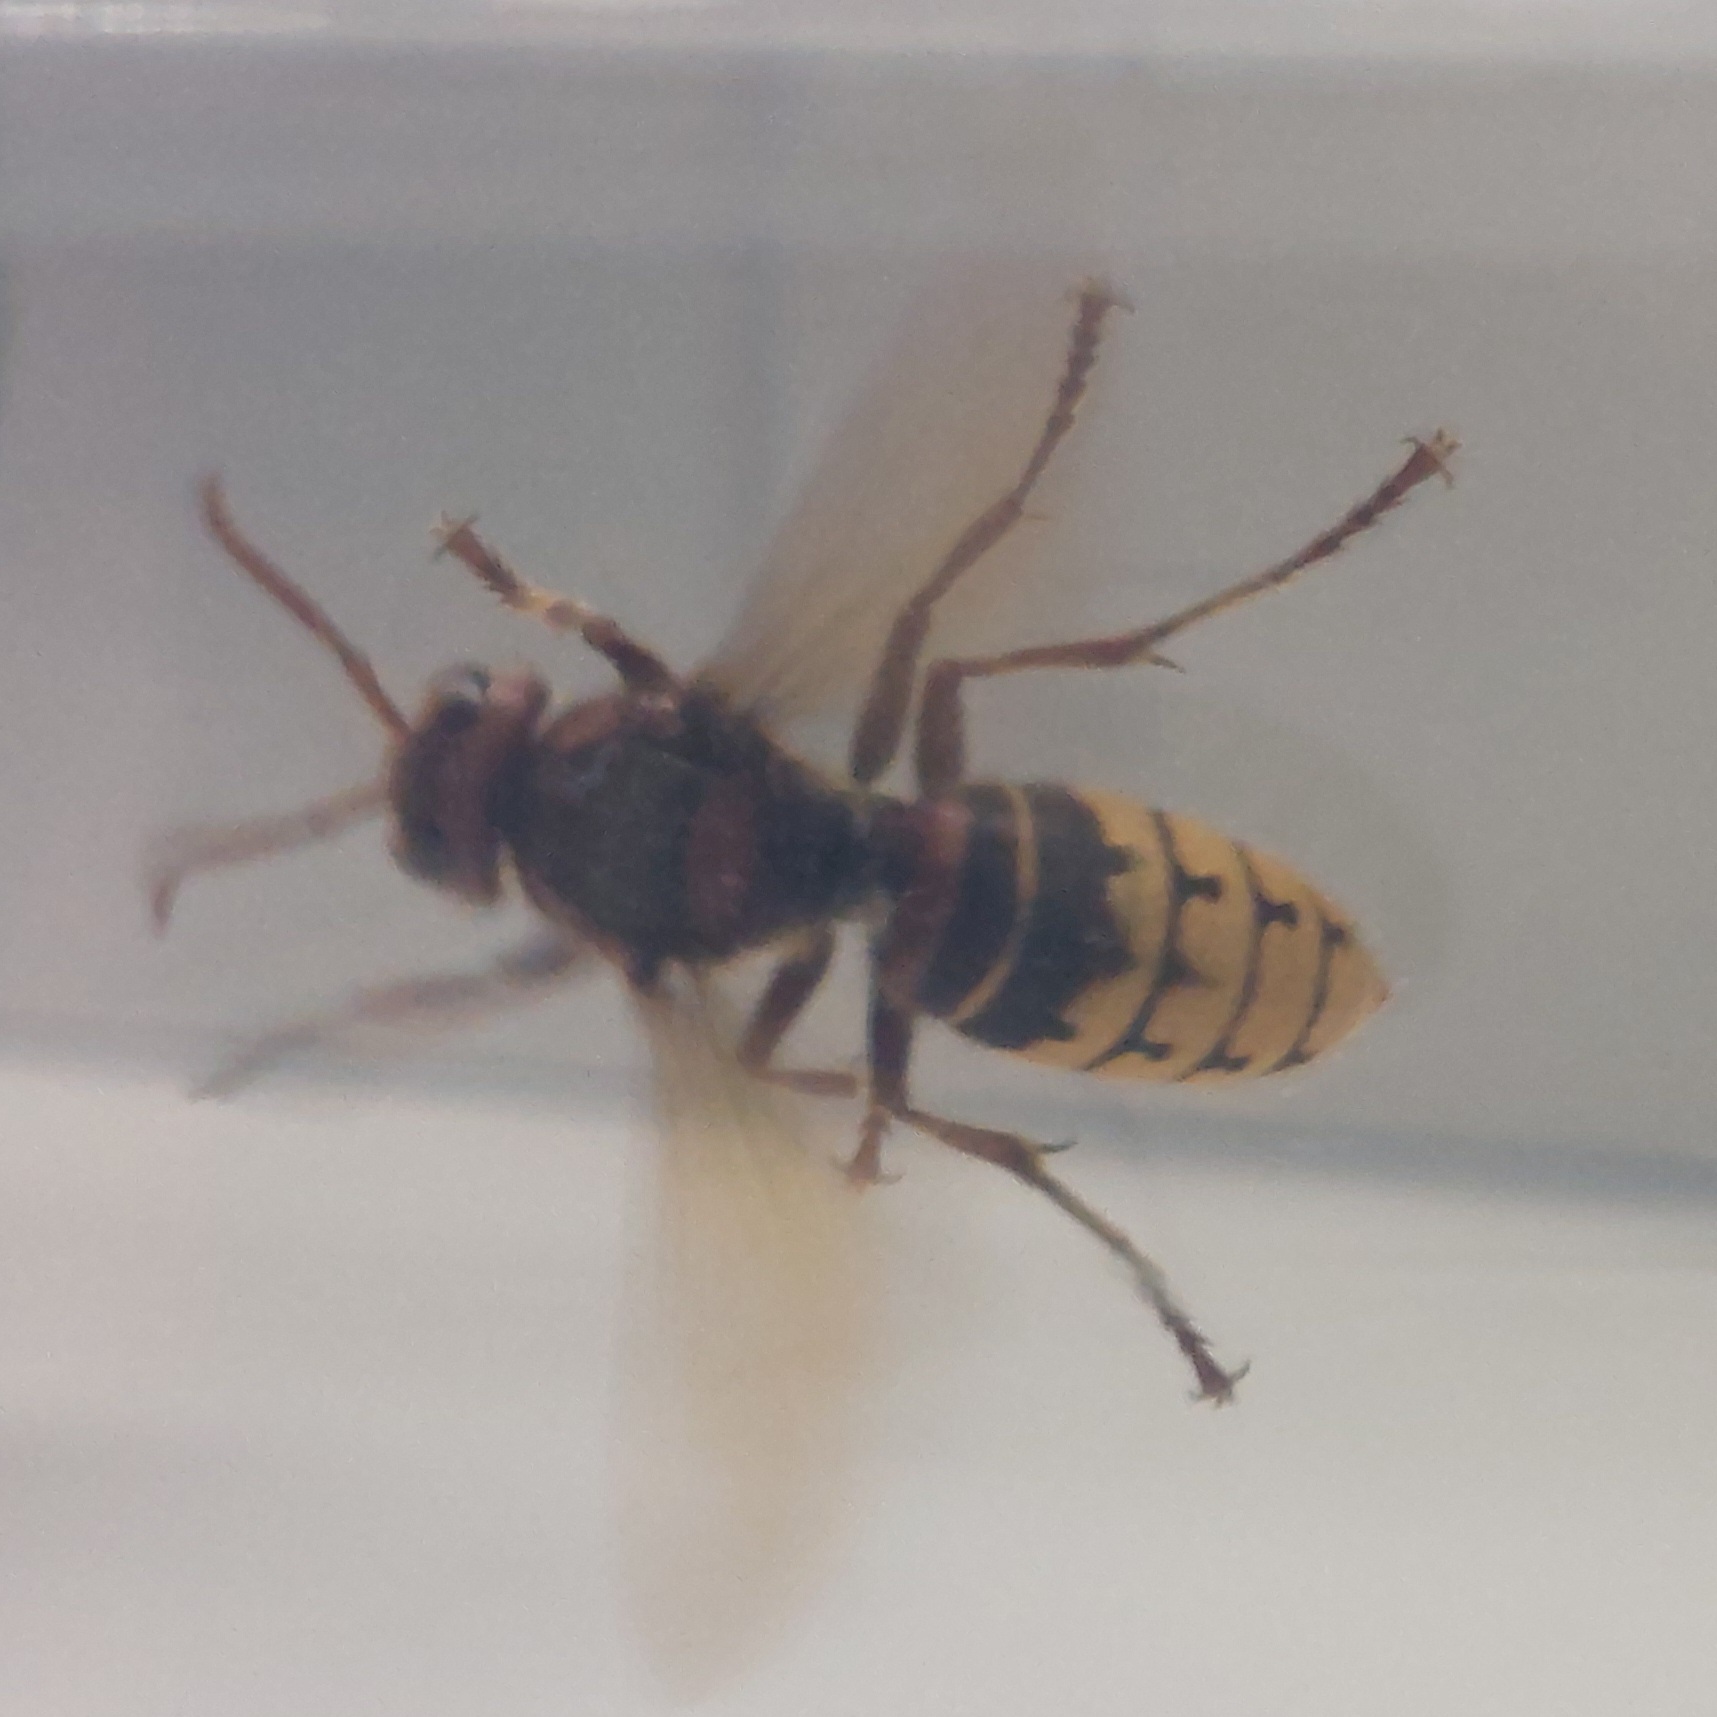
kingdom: Animalia
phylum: Arthropoda
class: Insecta
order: Hymenoptera
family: Vespidae
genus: Vespa
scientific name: Vespa crabro
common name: Hornet
